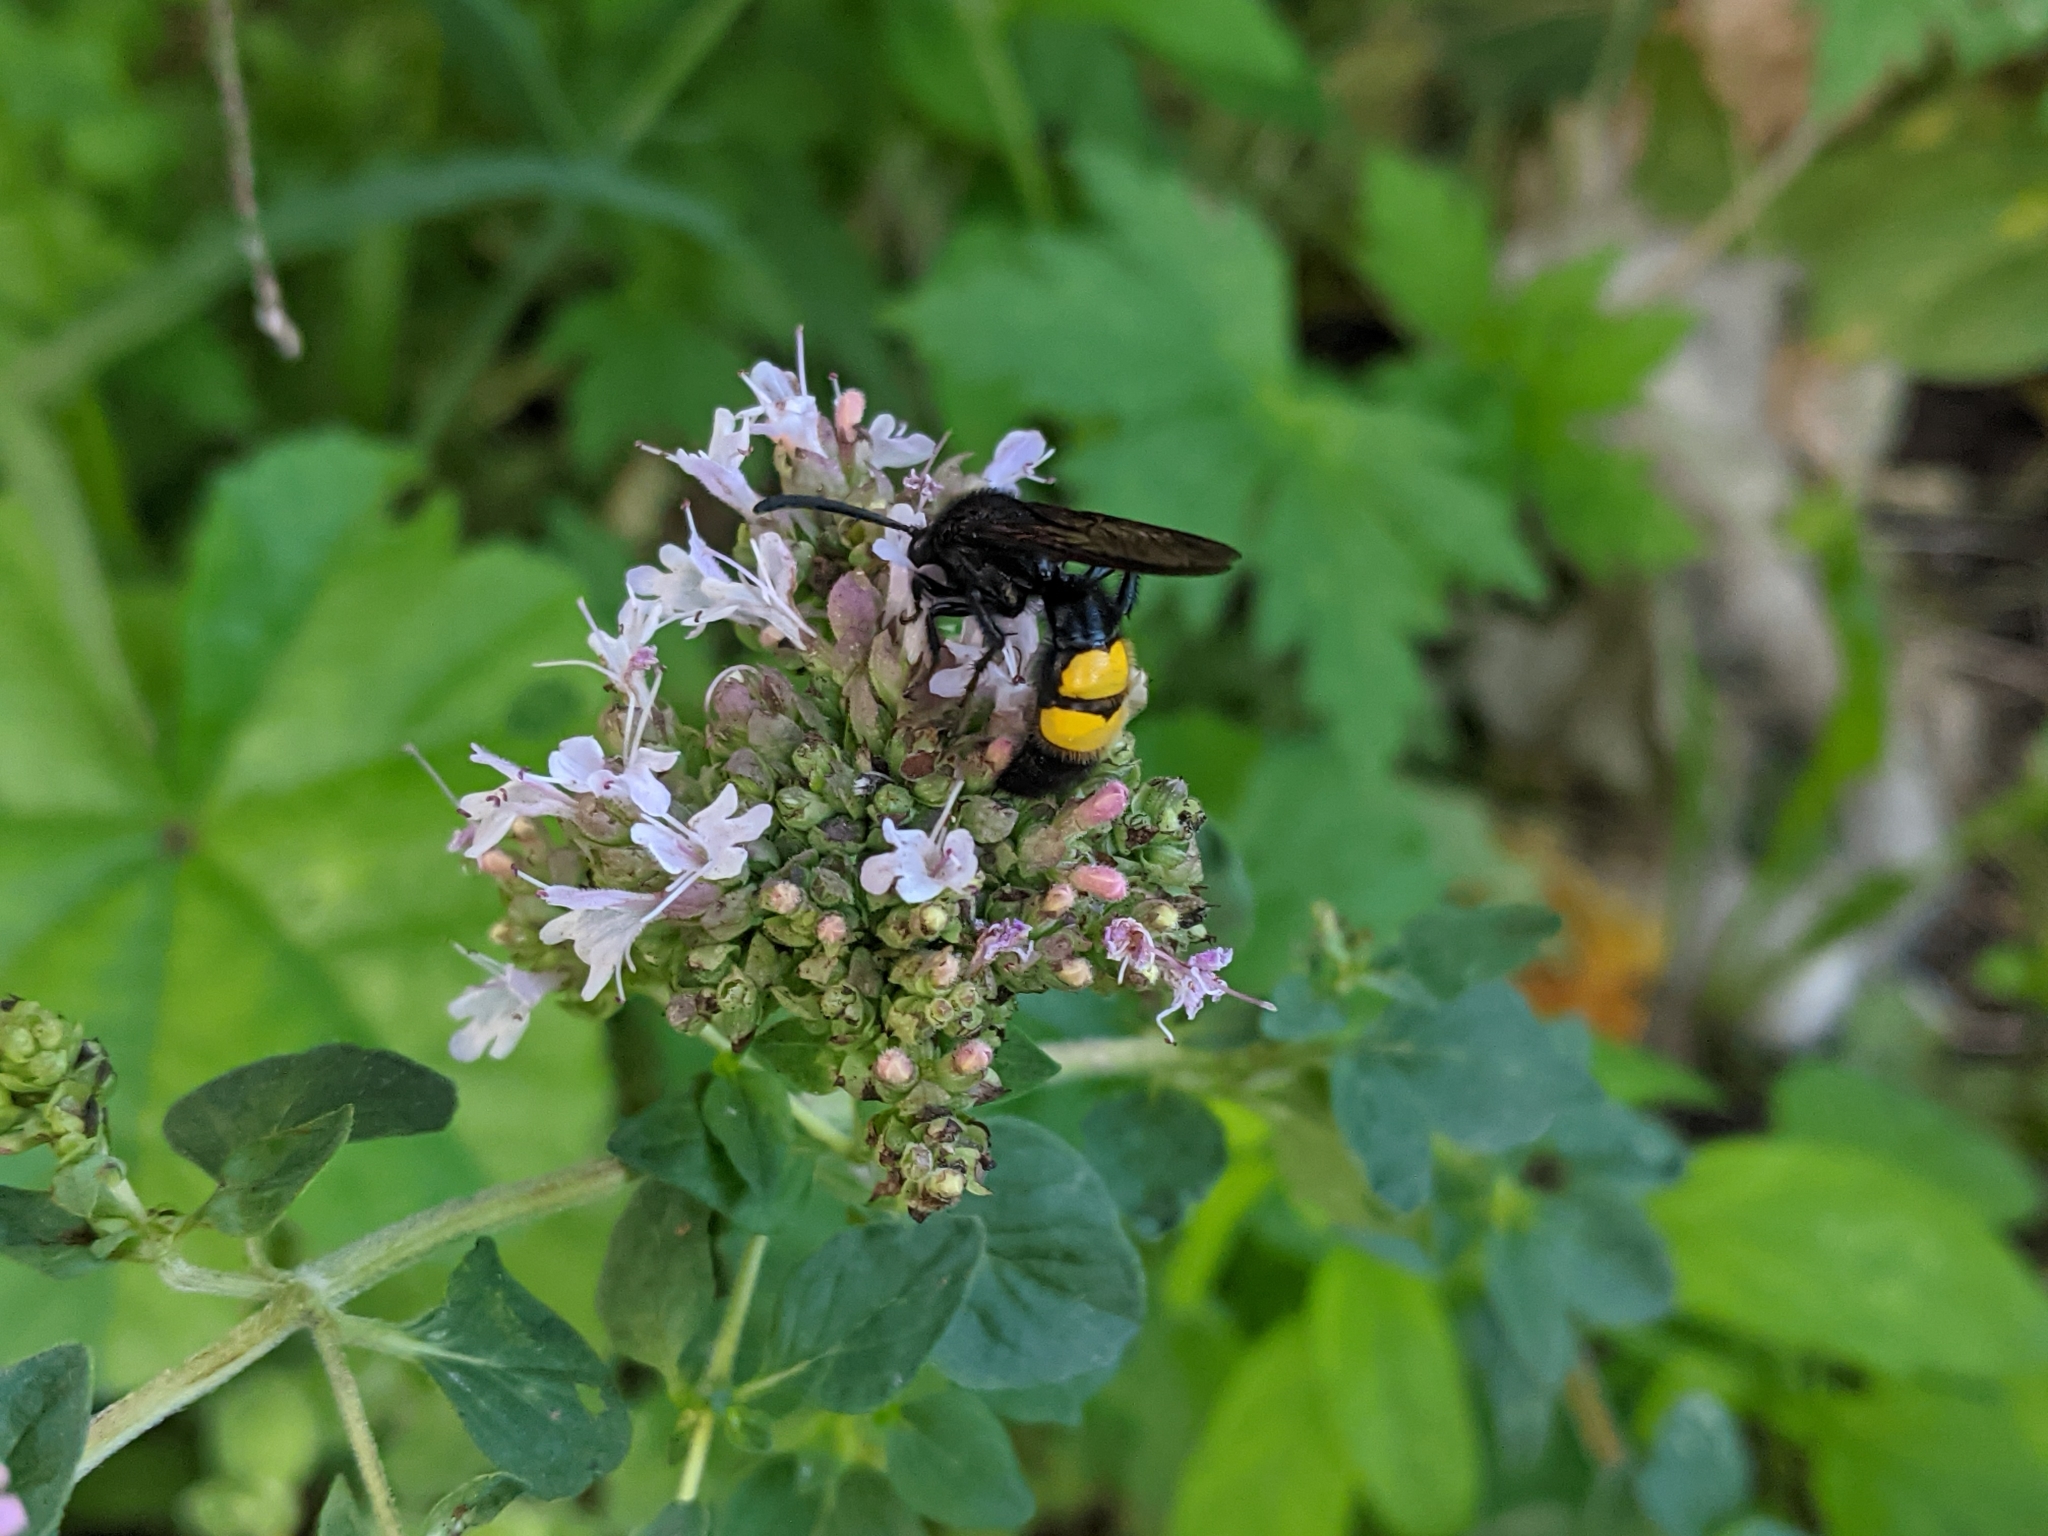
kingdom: Animalia
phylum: Arthropoda
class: Insecta
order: Hymenoptera
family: Scoliidae
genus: Scolia
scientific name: Scolia hirta
